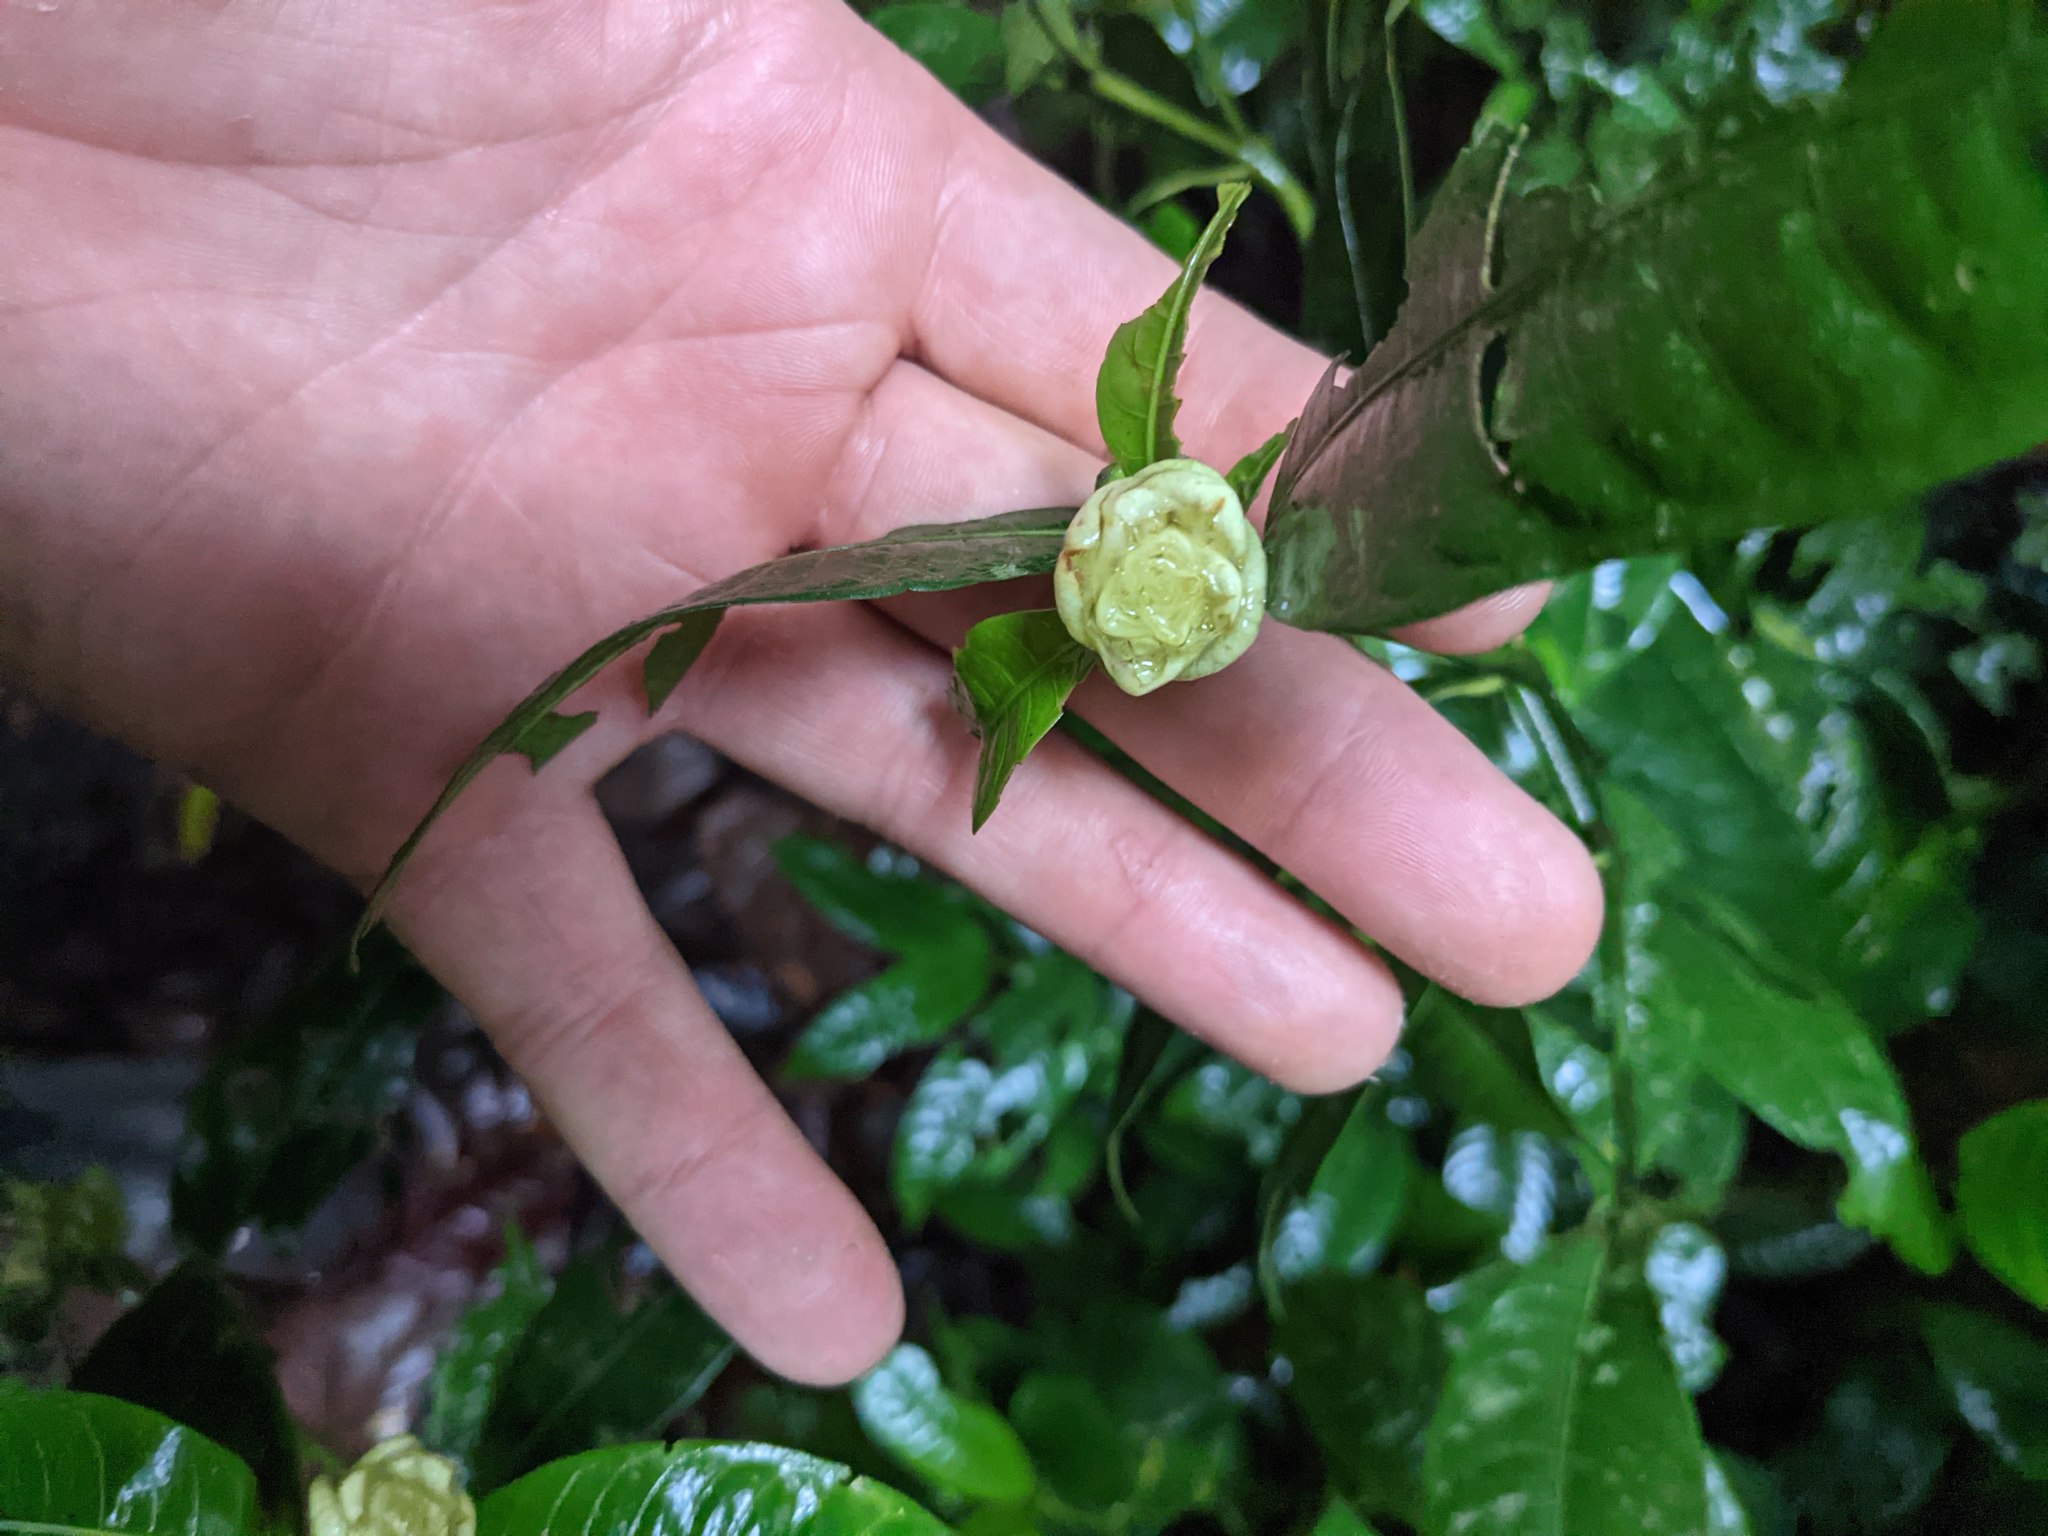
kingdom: Plantae
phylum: Tracheophyta
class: Magnoliopsida
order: Gentianales
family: Rubiaceae
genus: Palicourea
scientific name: Palicourea glomerulata
